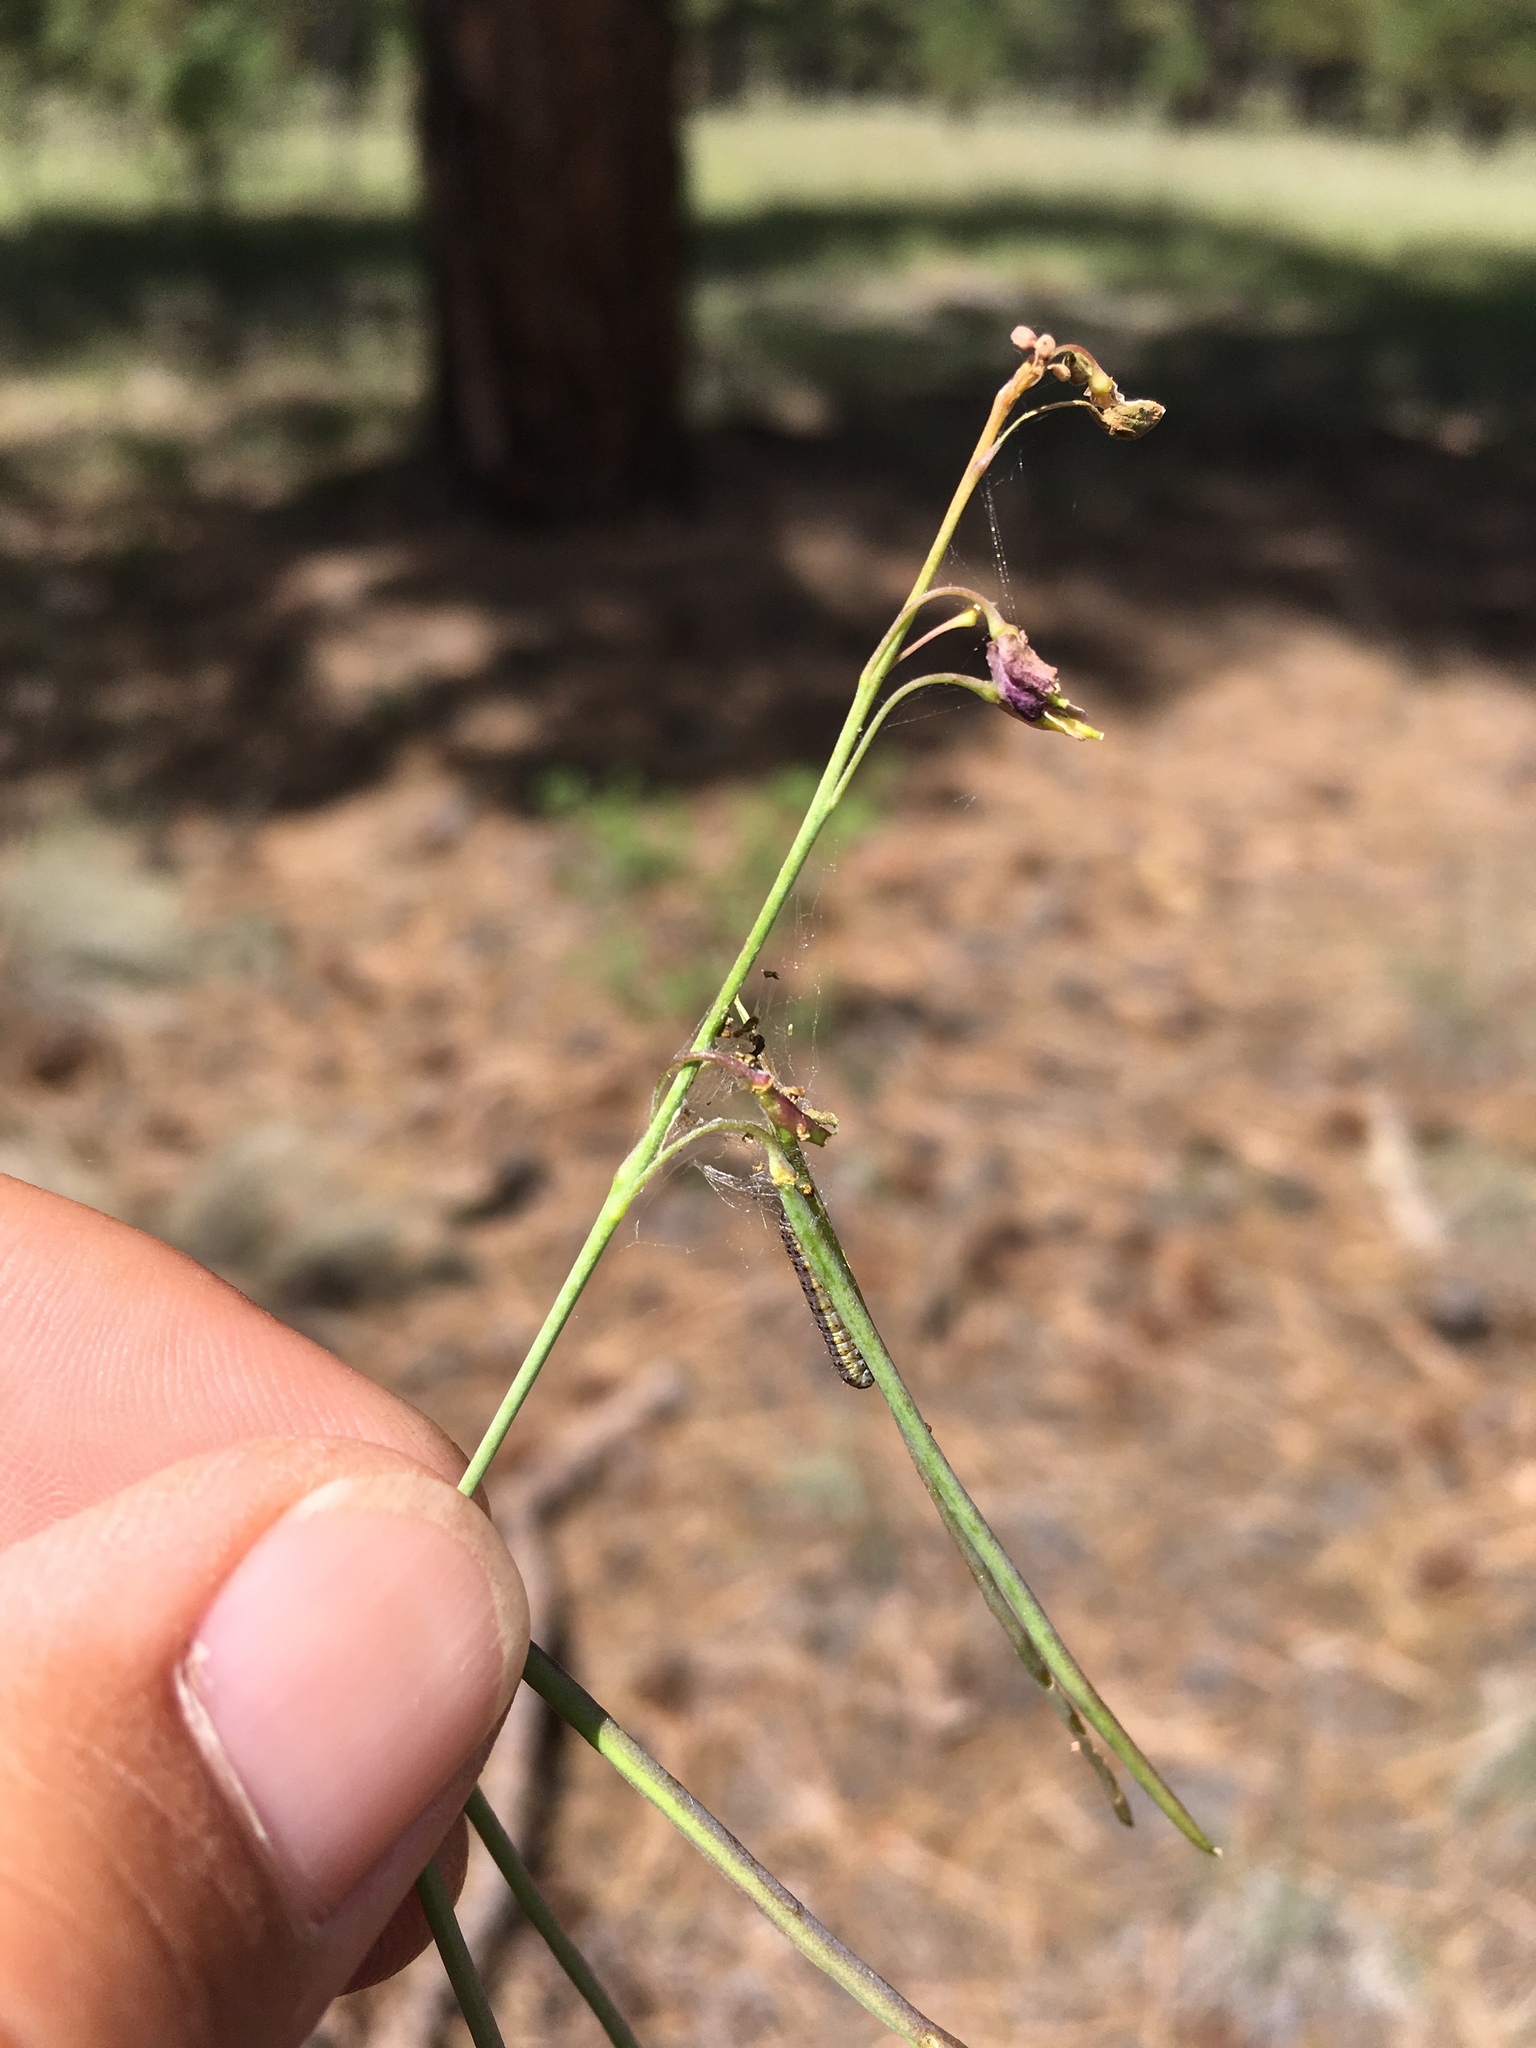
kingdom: Plantae
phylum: Tracheophyta
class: Magnoliopsida
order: Brassicales
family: Brassicaceae
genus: Pennellia
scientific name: Pennellia longifolia
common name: Longleaf mock thelypody
